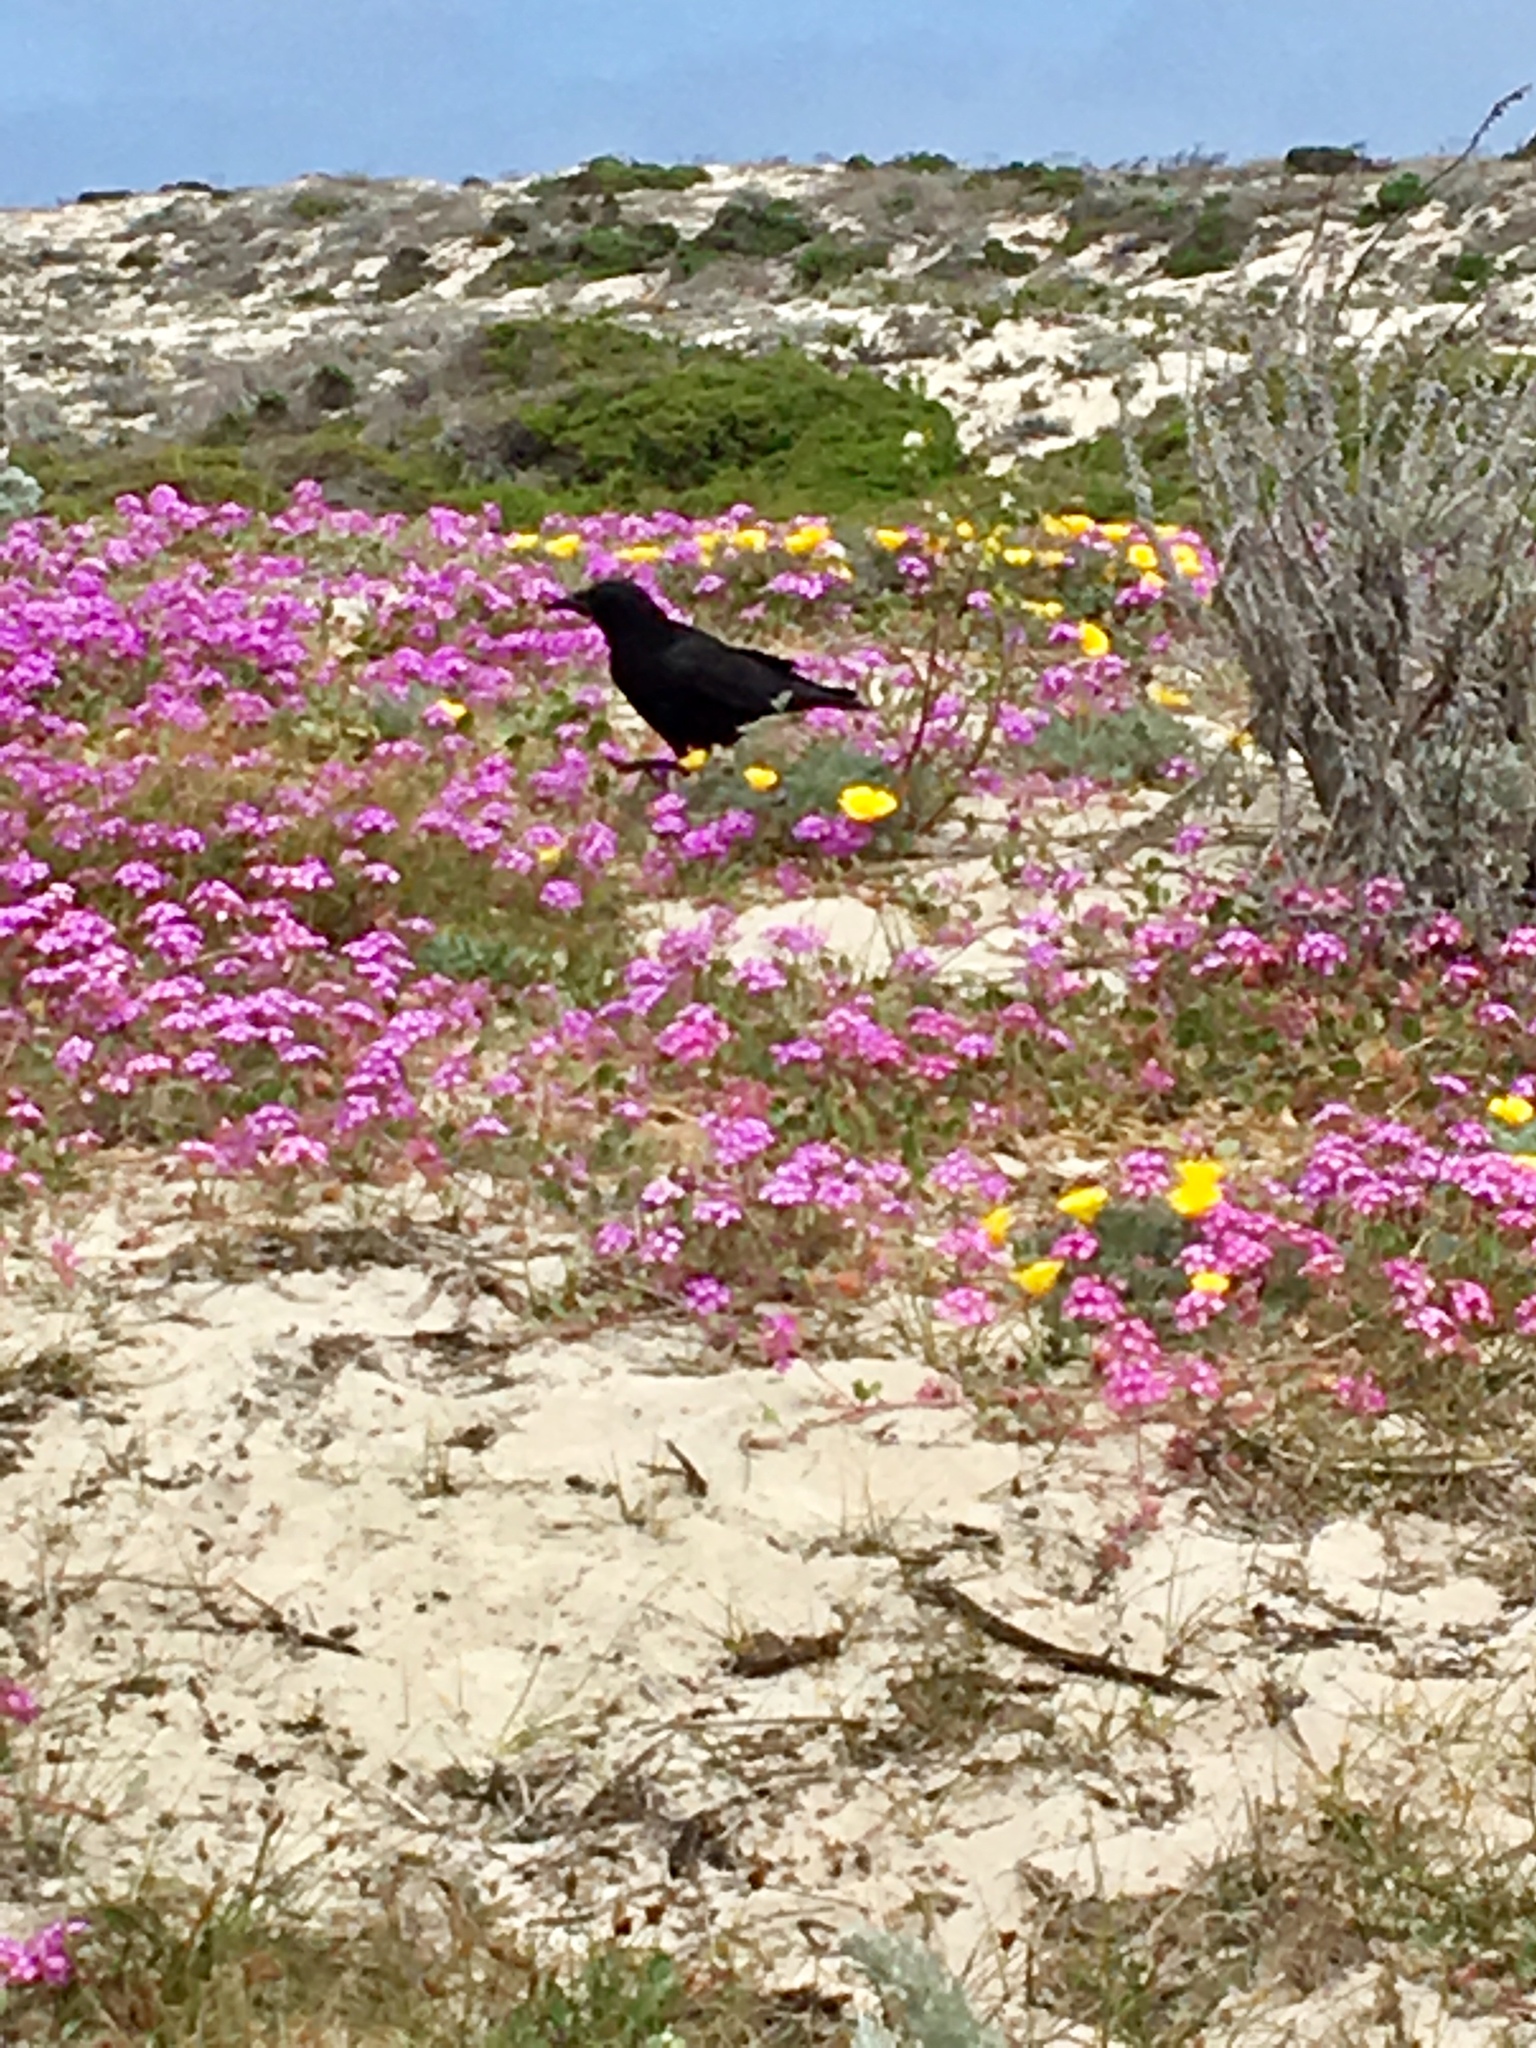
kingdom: Animalia
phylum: Chordata
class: Aves
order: Passeriformes
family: Corvidae
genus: Corvus
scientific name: Corvus brachyrhynchos
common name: American crow
